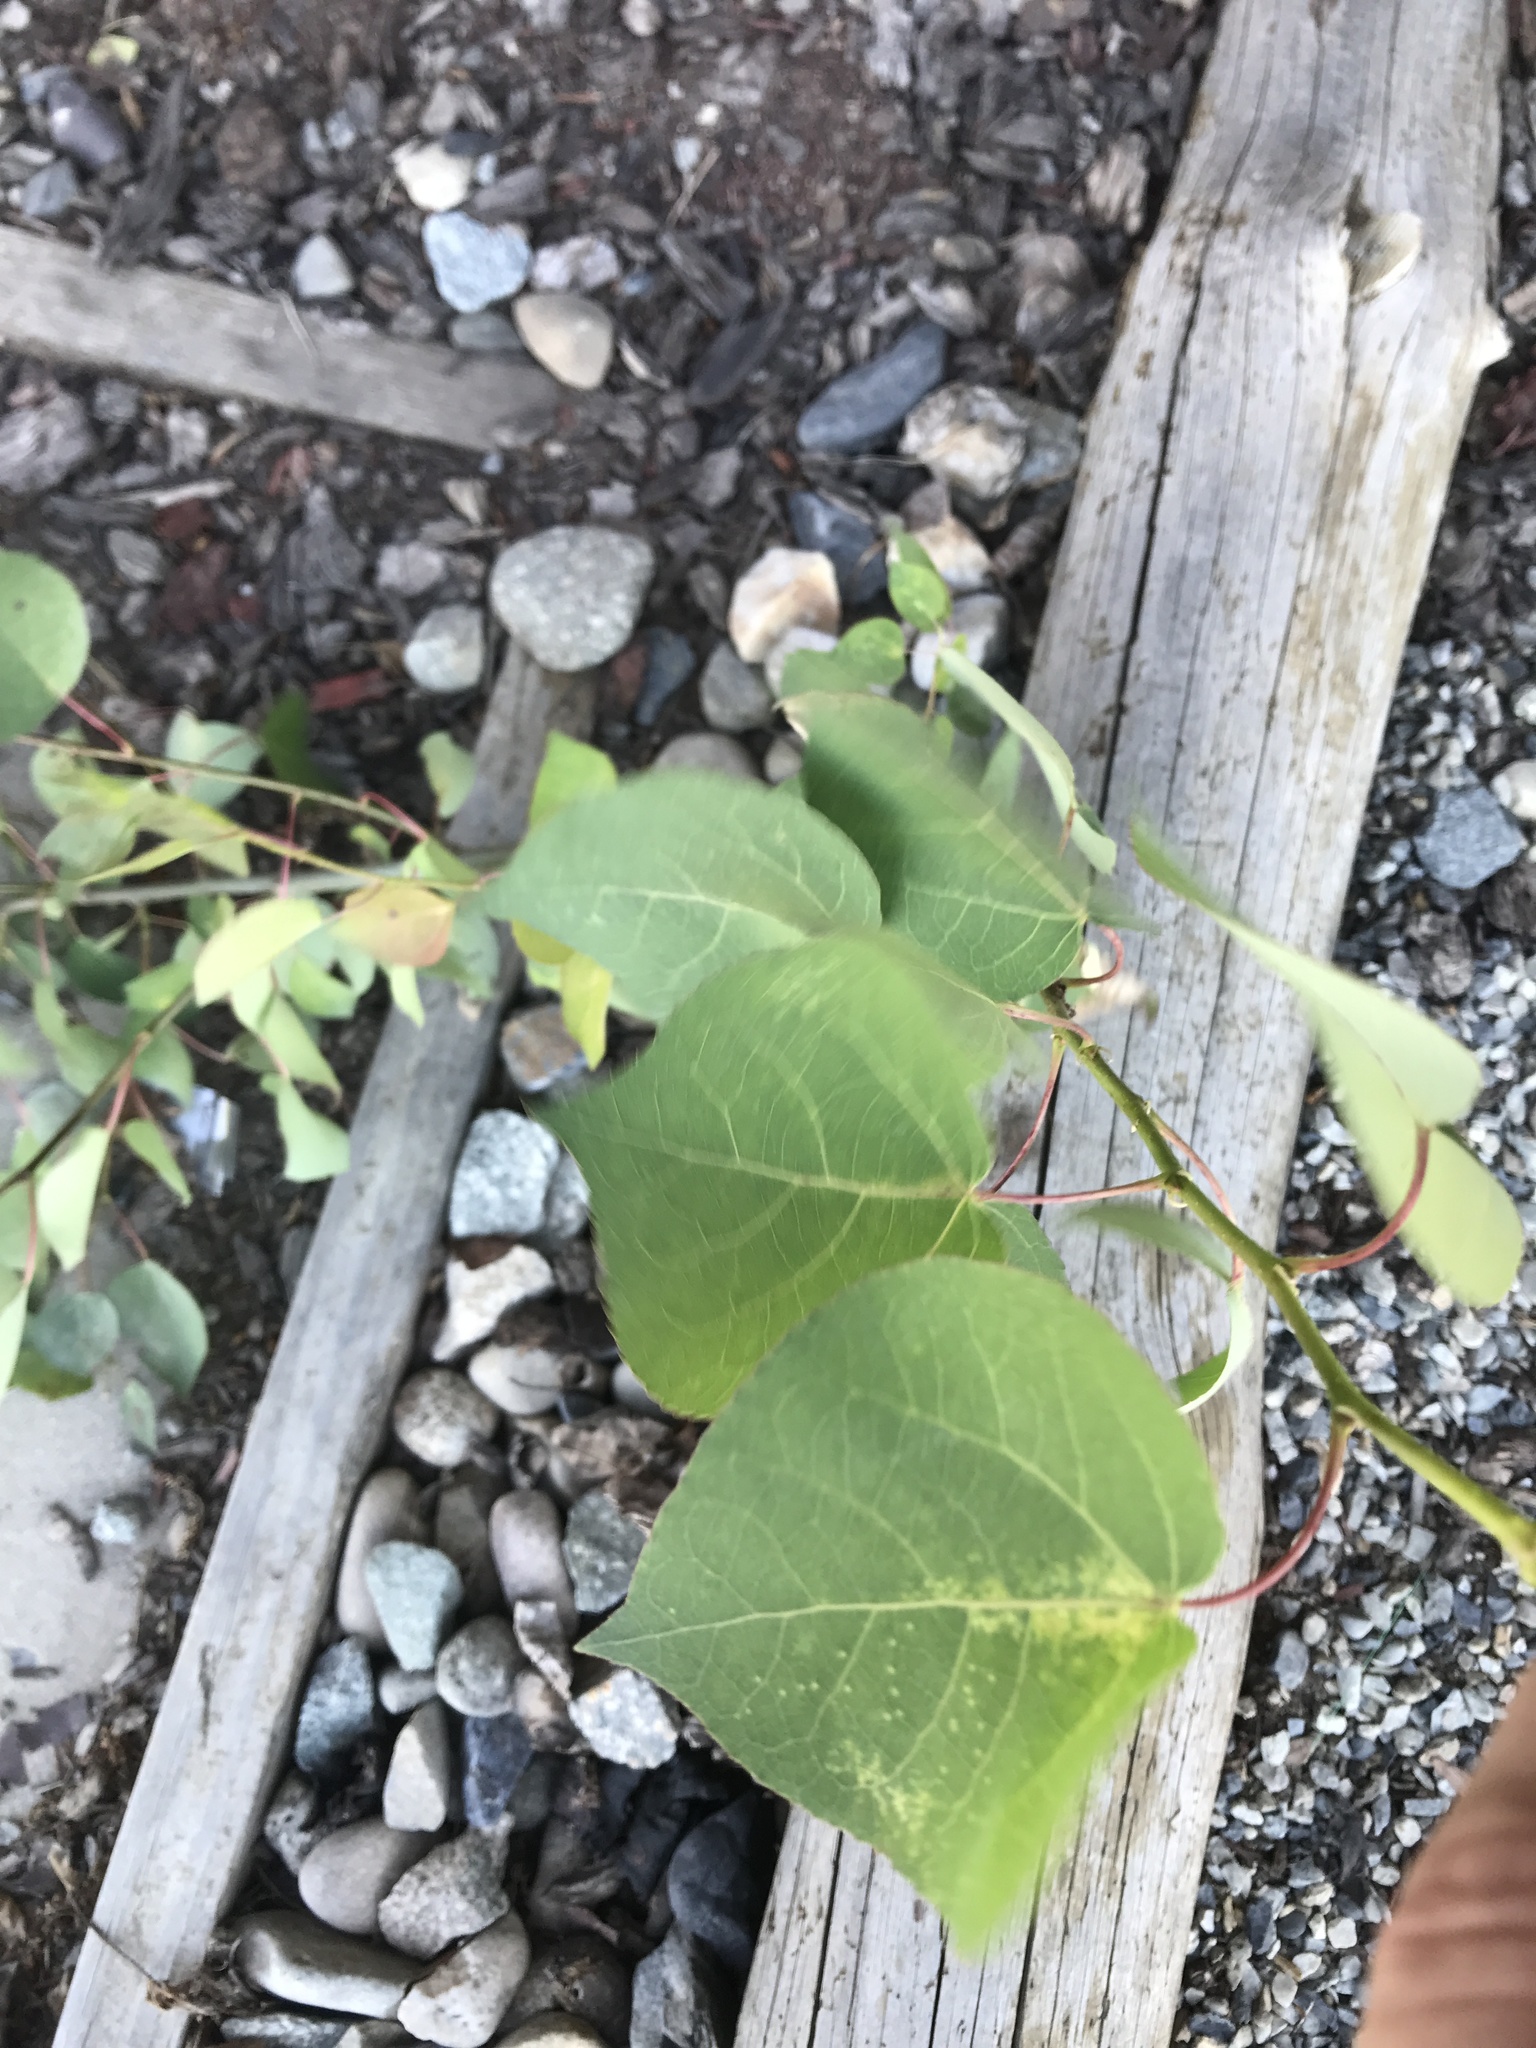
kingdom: Plantae
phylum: Tracheophyta
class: Magnoliopsida
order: Malpighiales
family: Salicaceae
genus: Populus
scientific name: Populus tremuloides
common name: Quaking aspen
